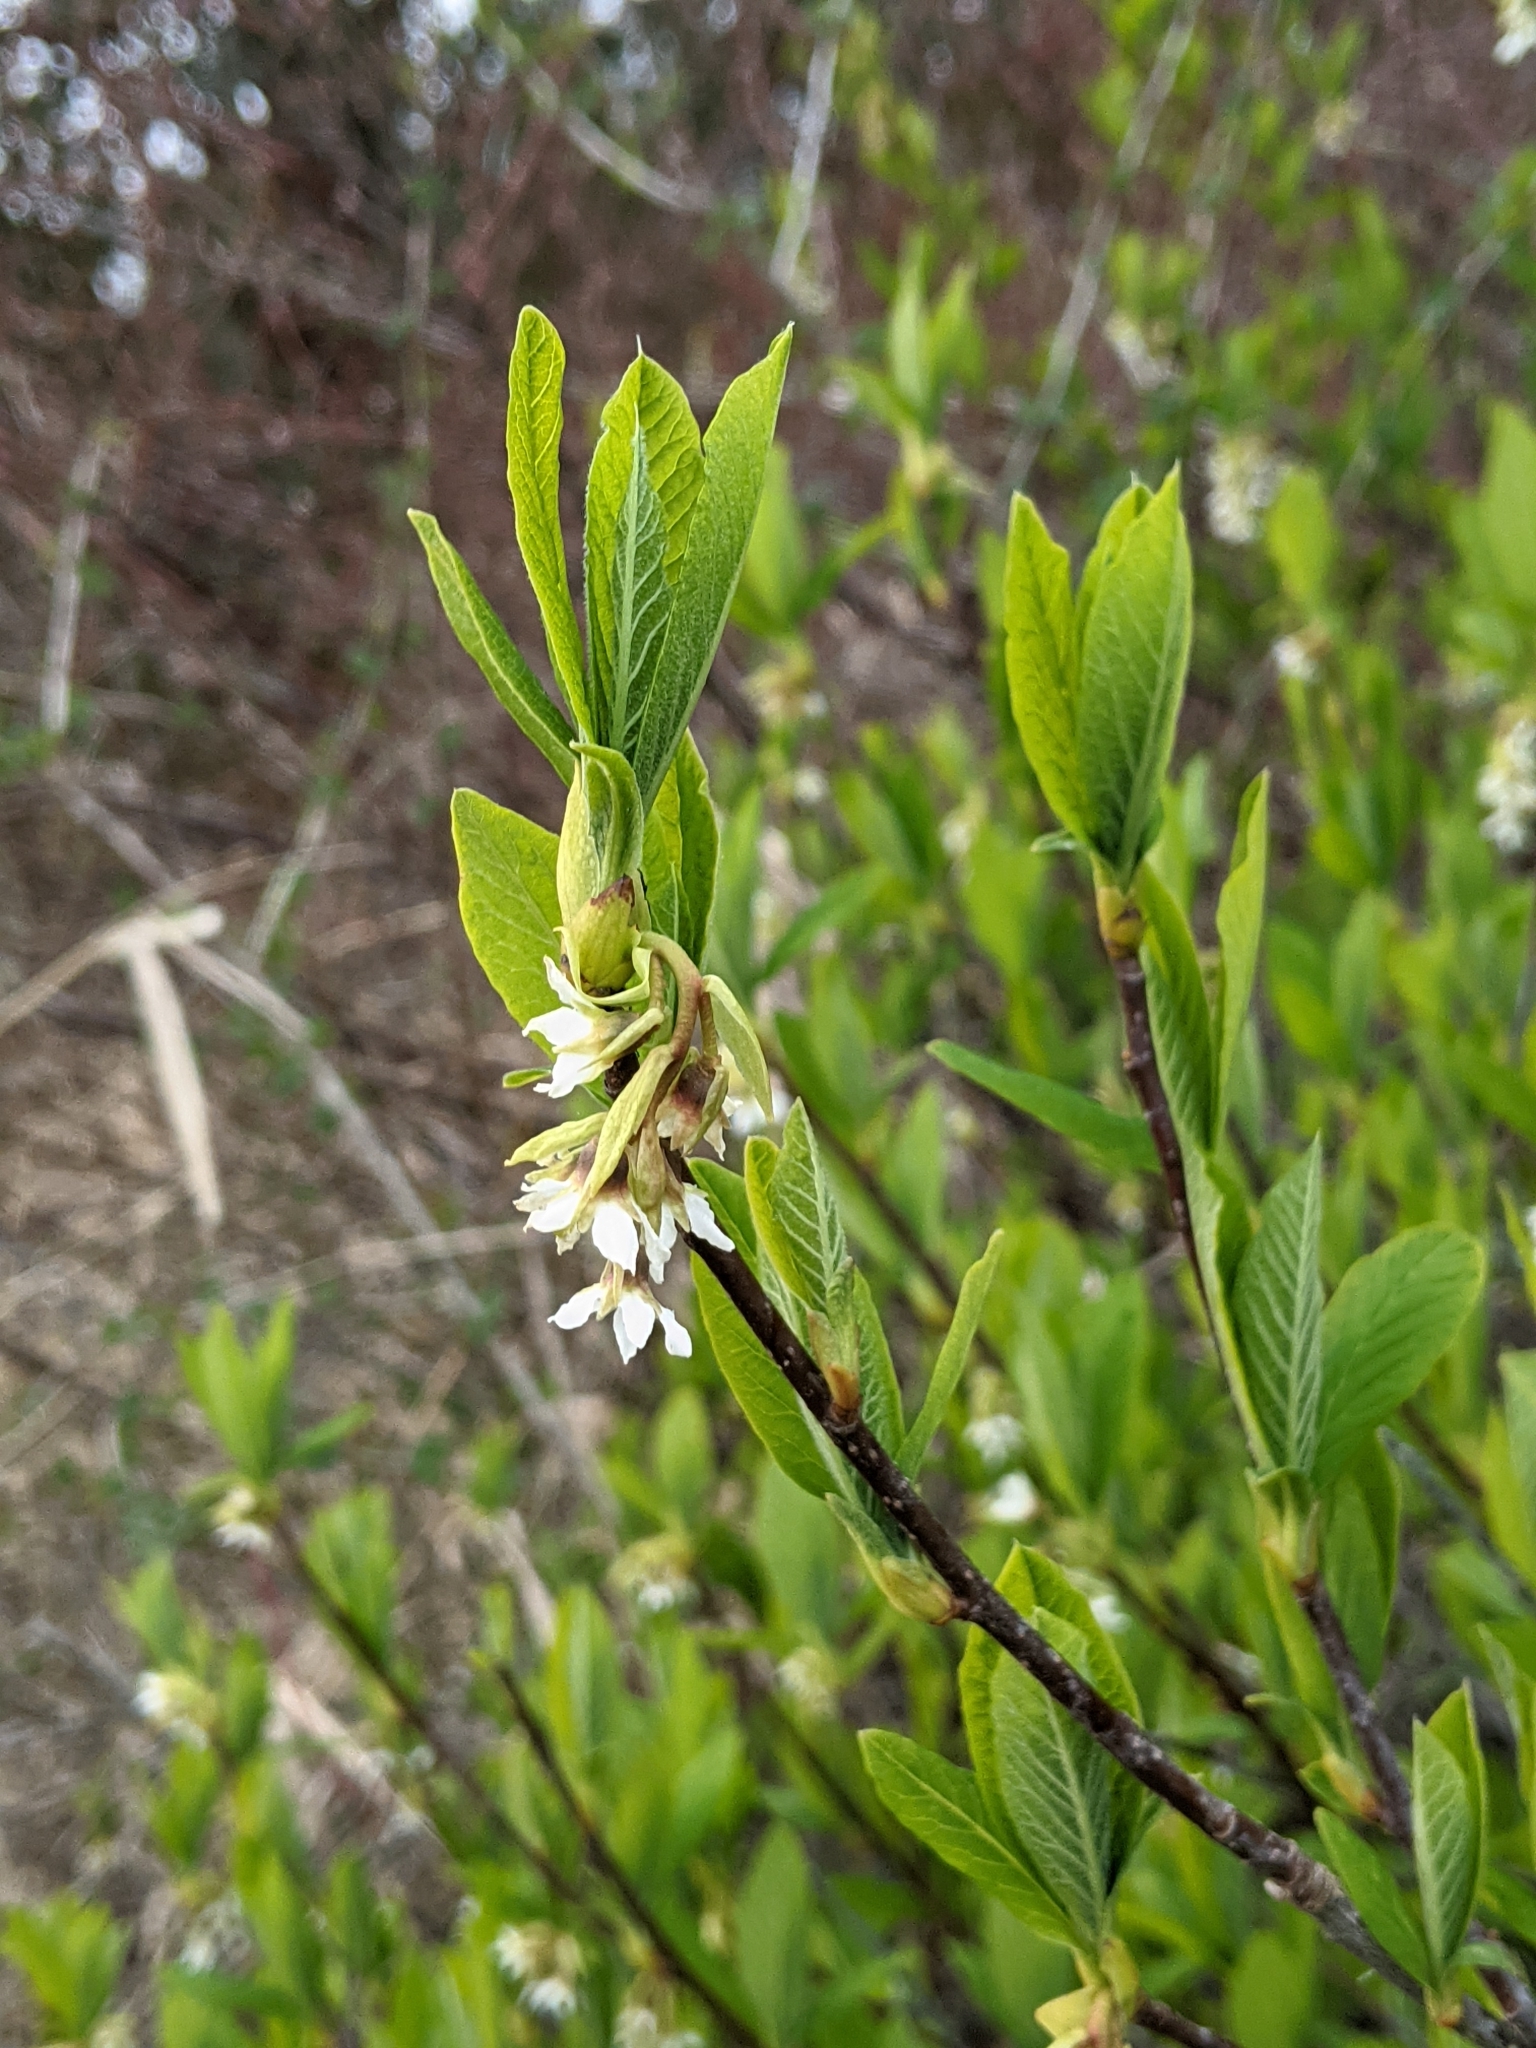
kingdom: Plantae
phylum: Tracheophyta
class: Magnoliopsida
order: Rosales
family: Rosaceae
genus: Oemleria
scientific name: Oemleria cerasiformis
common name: Osoberry
